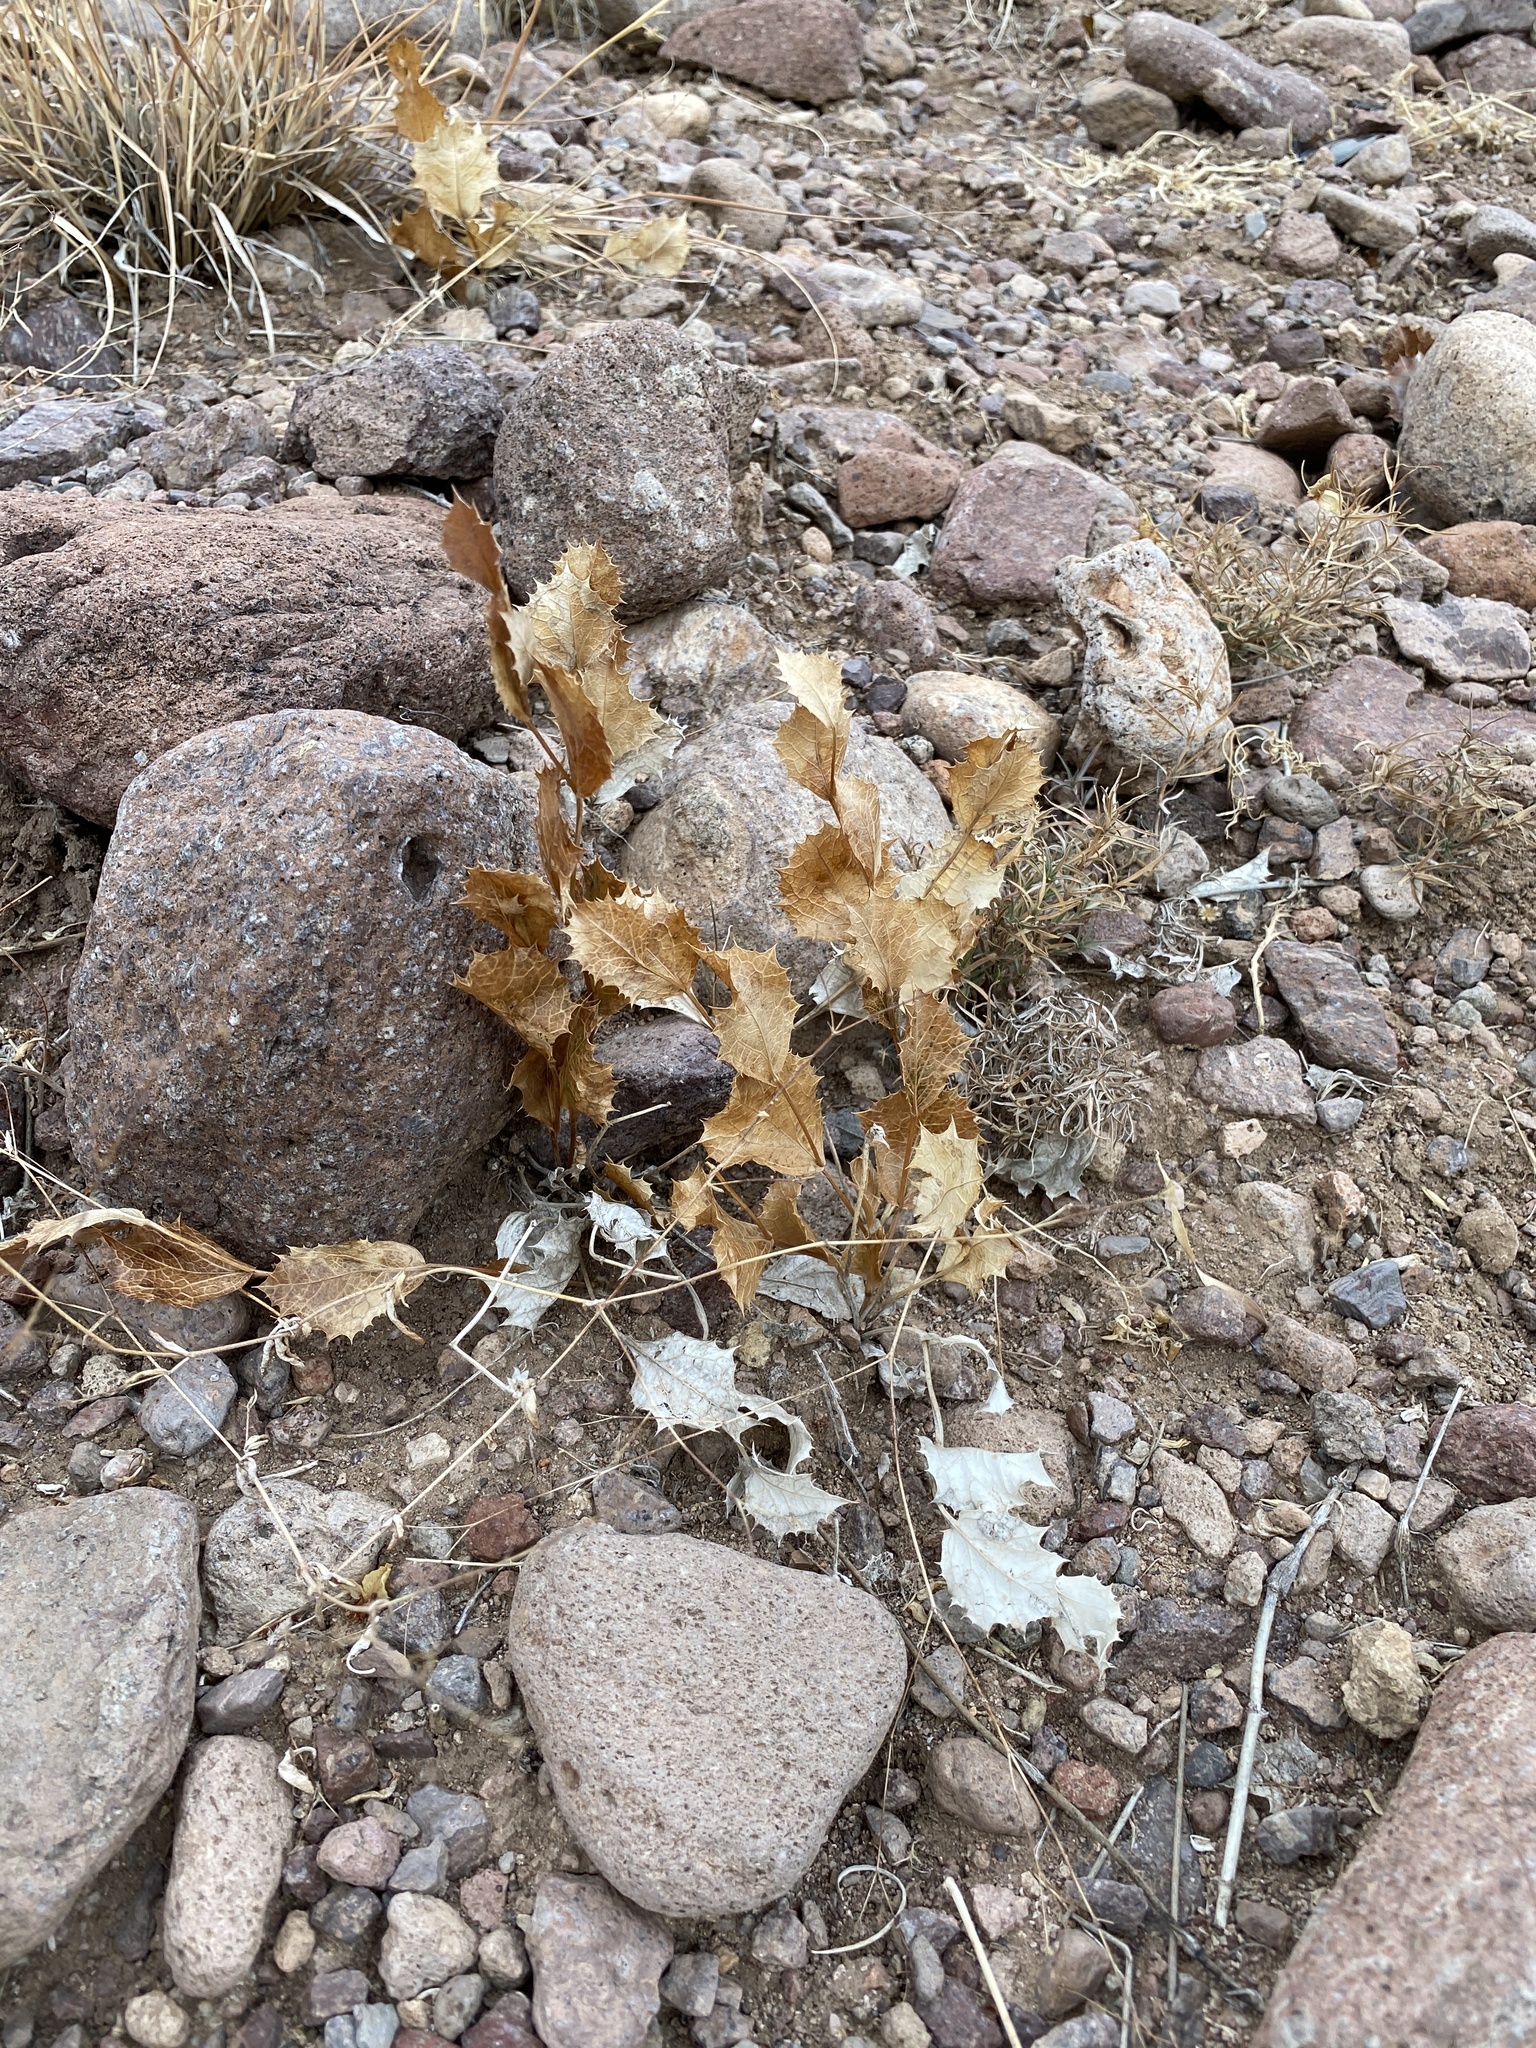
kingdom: Plantae
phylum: Tracheophyta
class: Magnoliopsida
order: Asterales
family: Asteraceae
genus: Acourtia
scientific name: Acourtia nana
